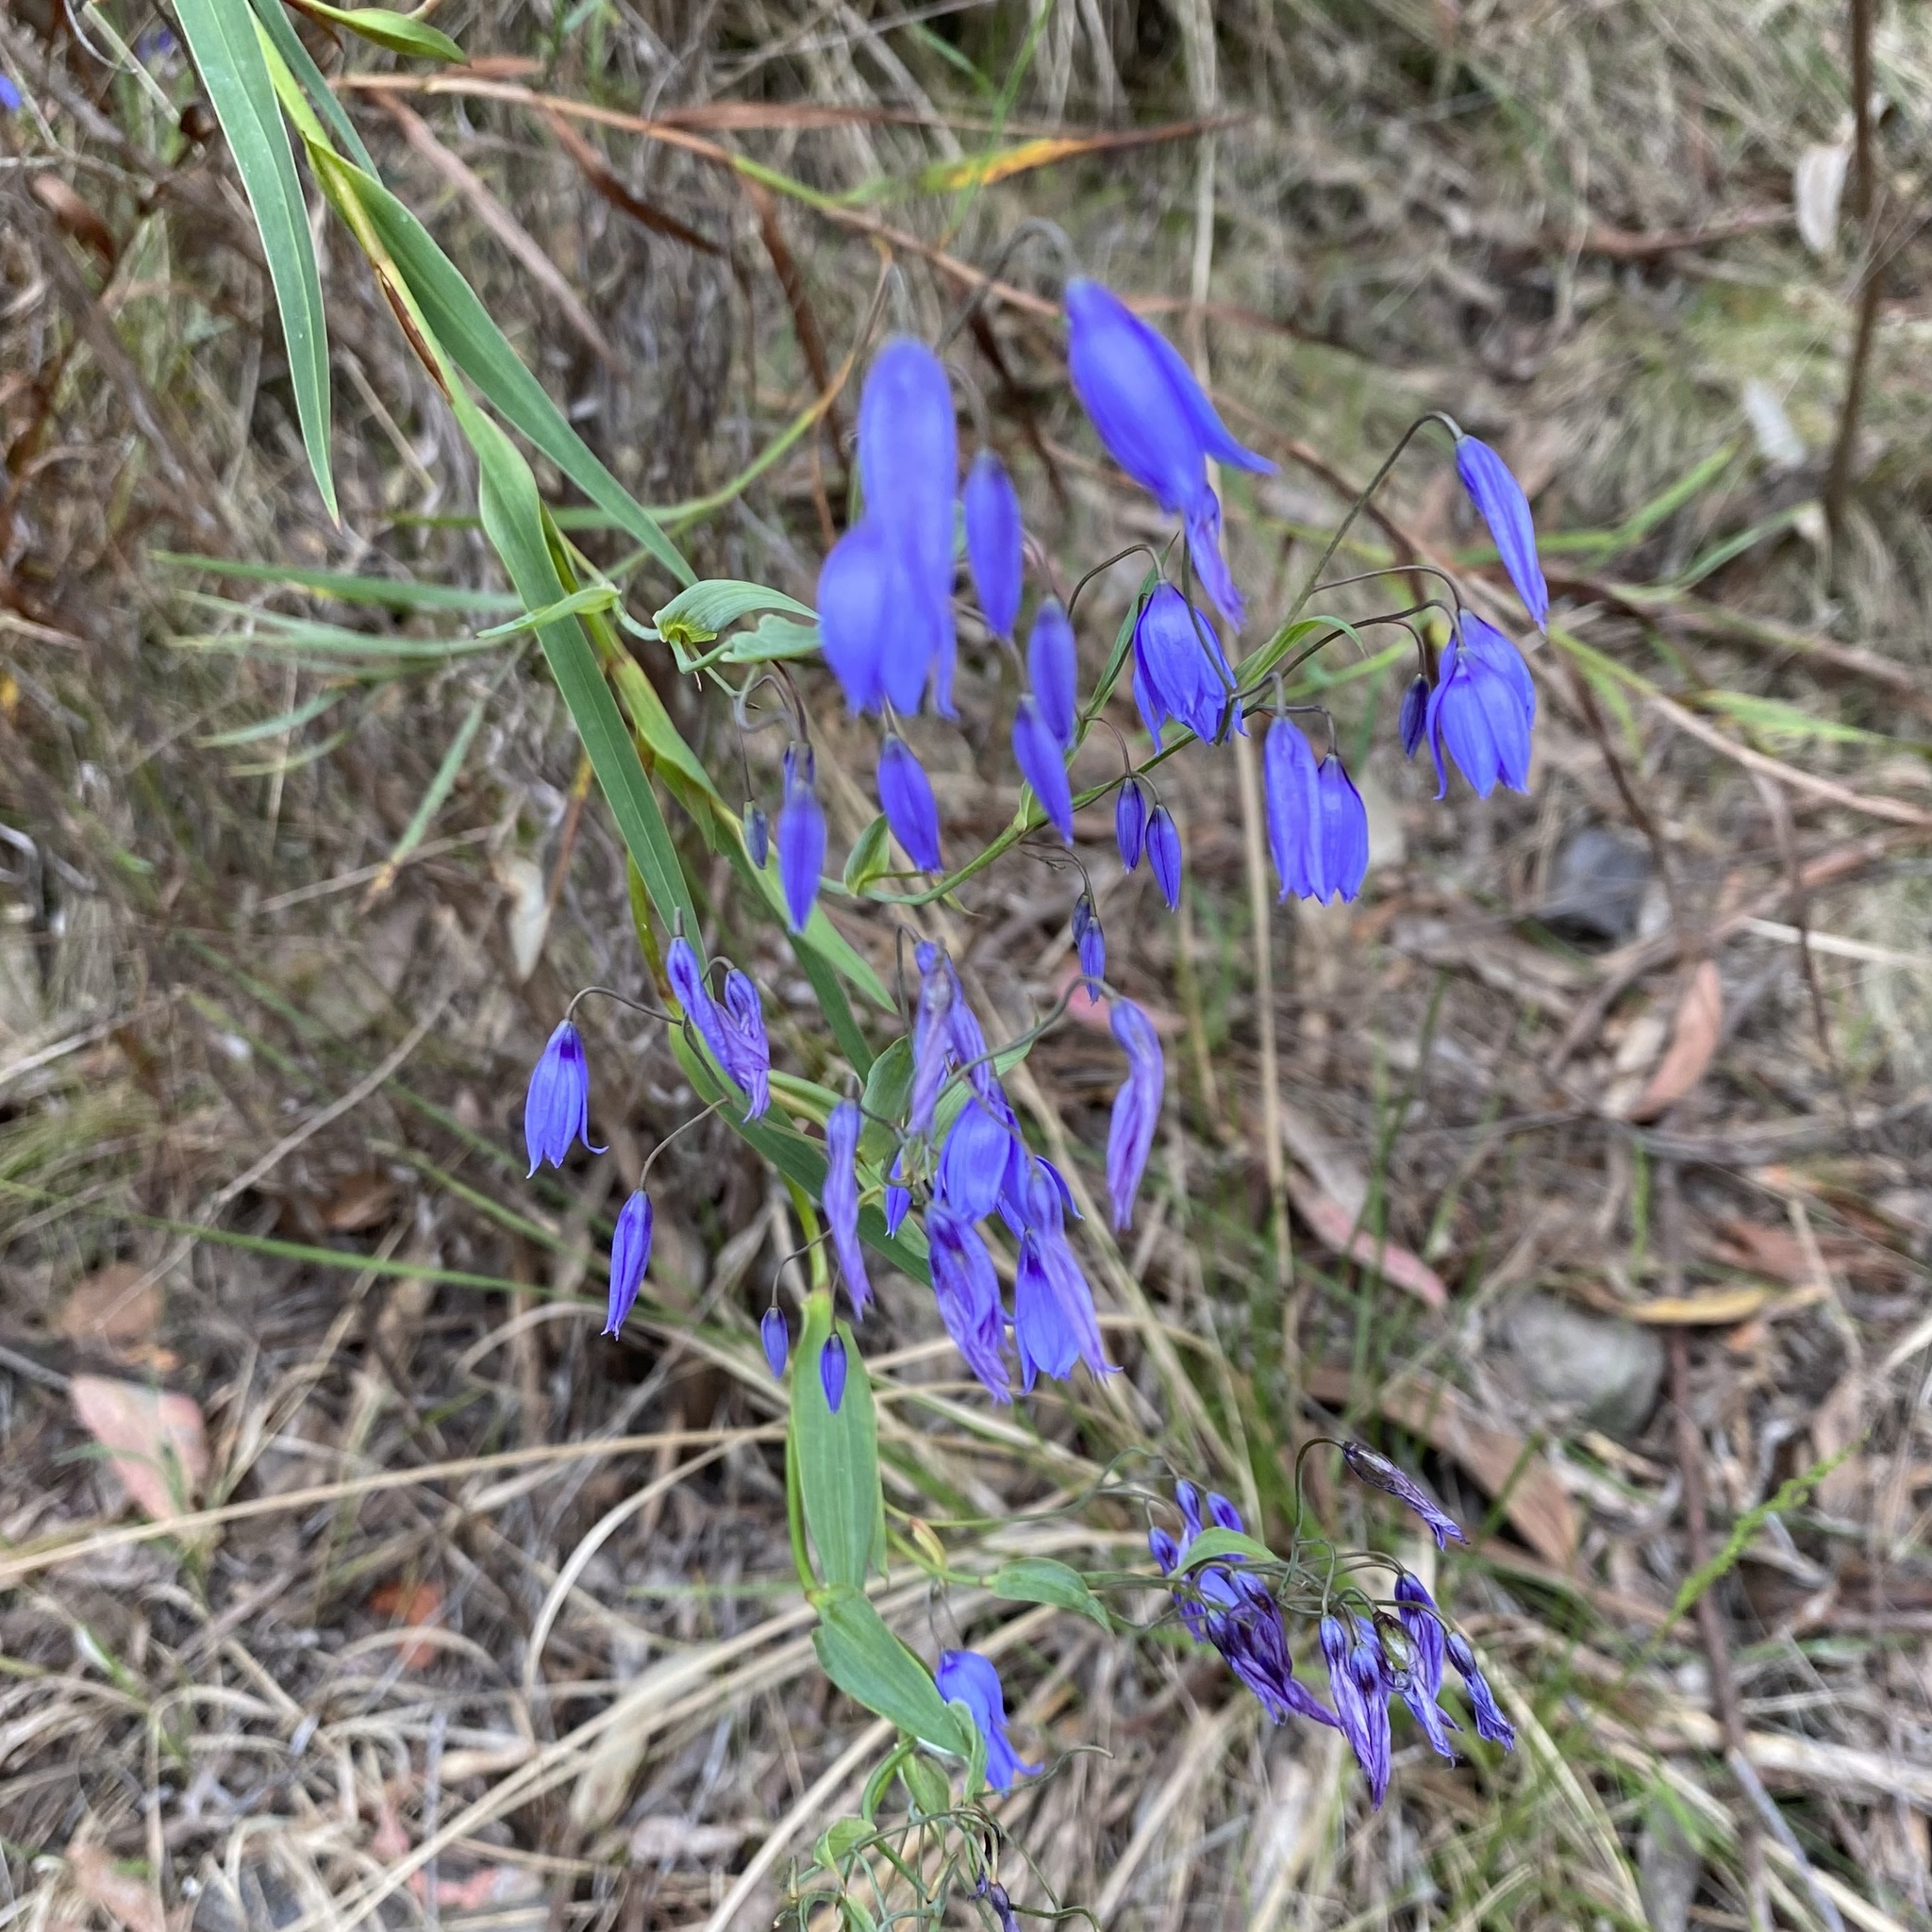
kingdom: Plantae
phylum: Tracheophyta
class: Liliopsida
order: Asparagales
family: Asphodelaceae
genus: Stypandra
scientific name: Stypandra glauca
